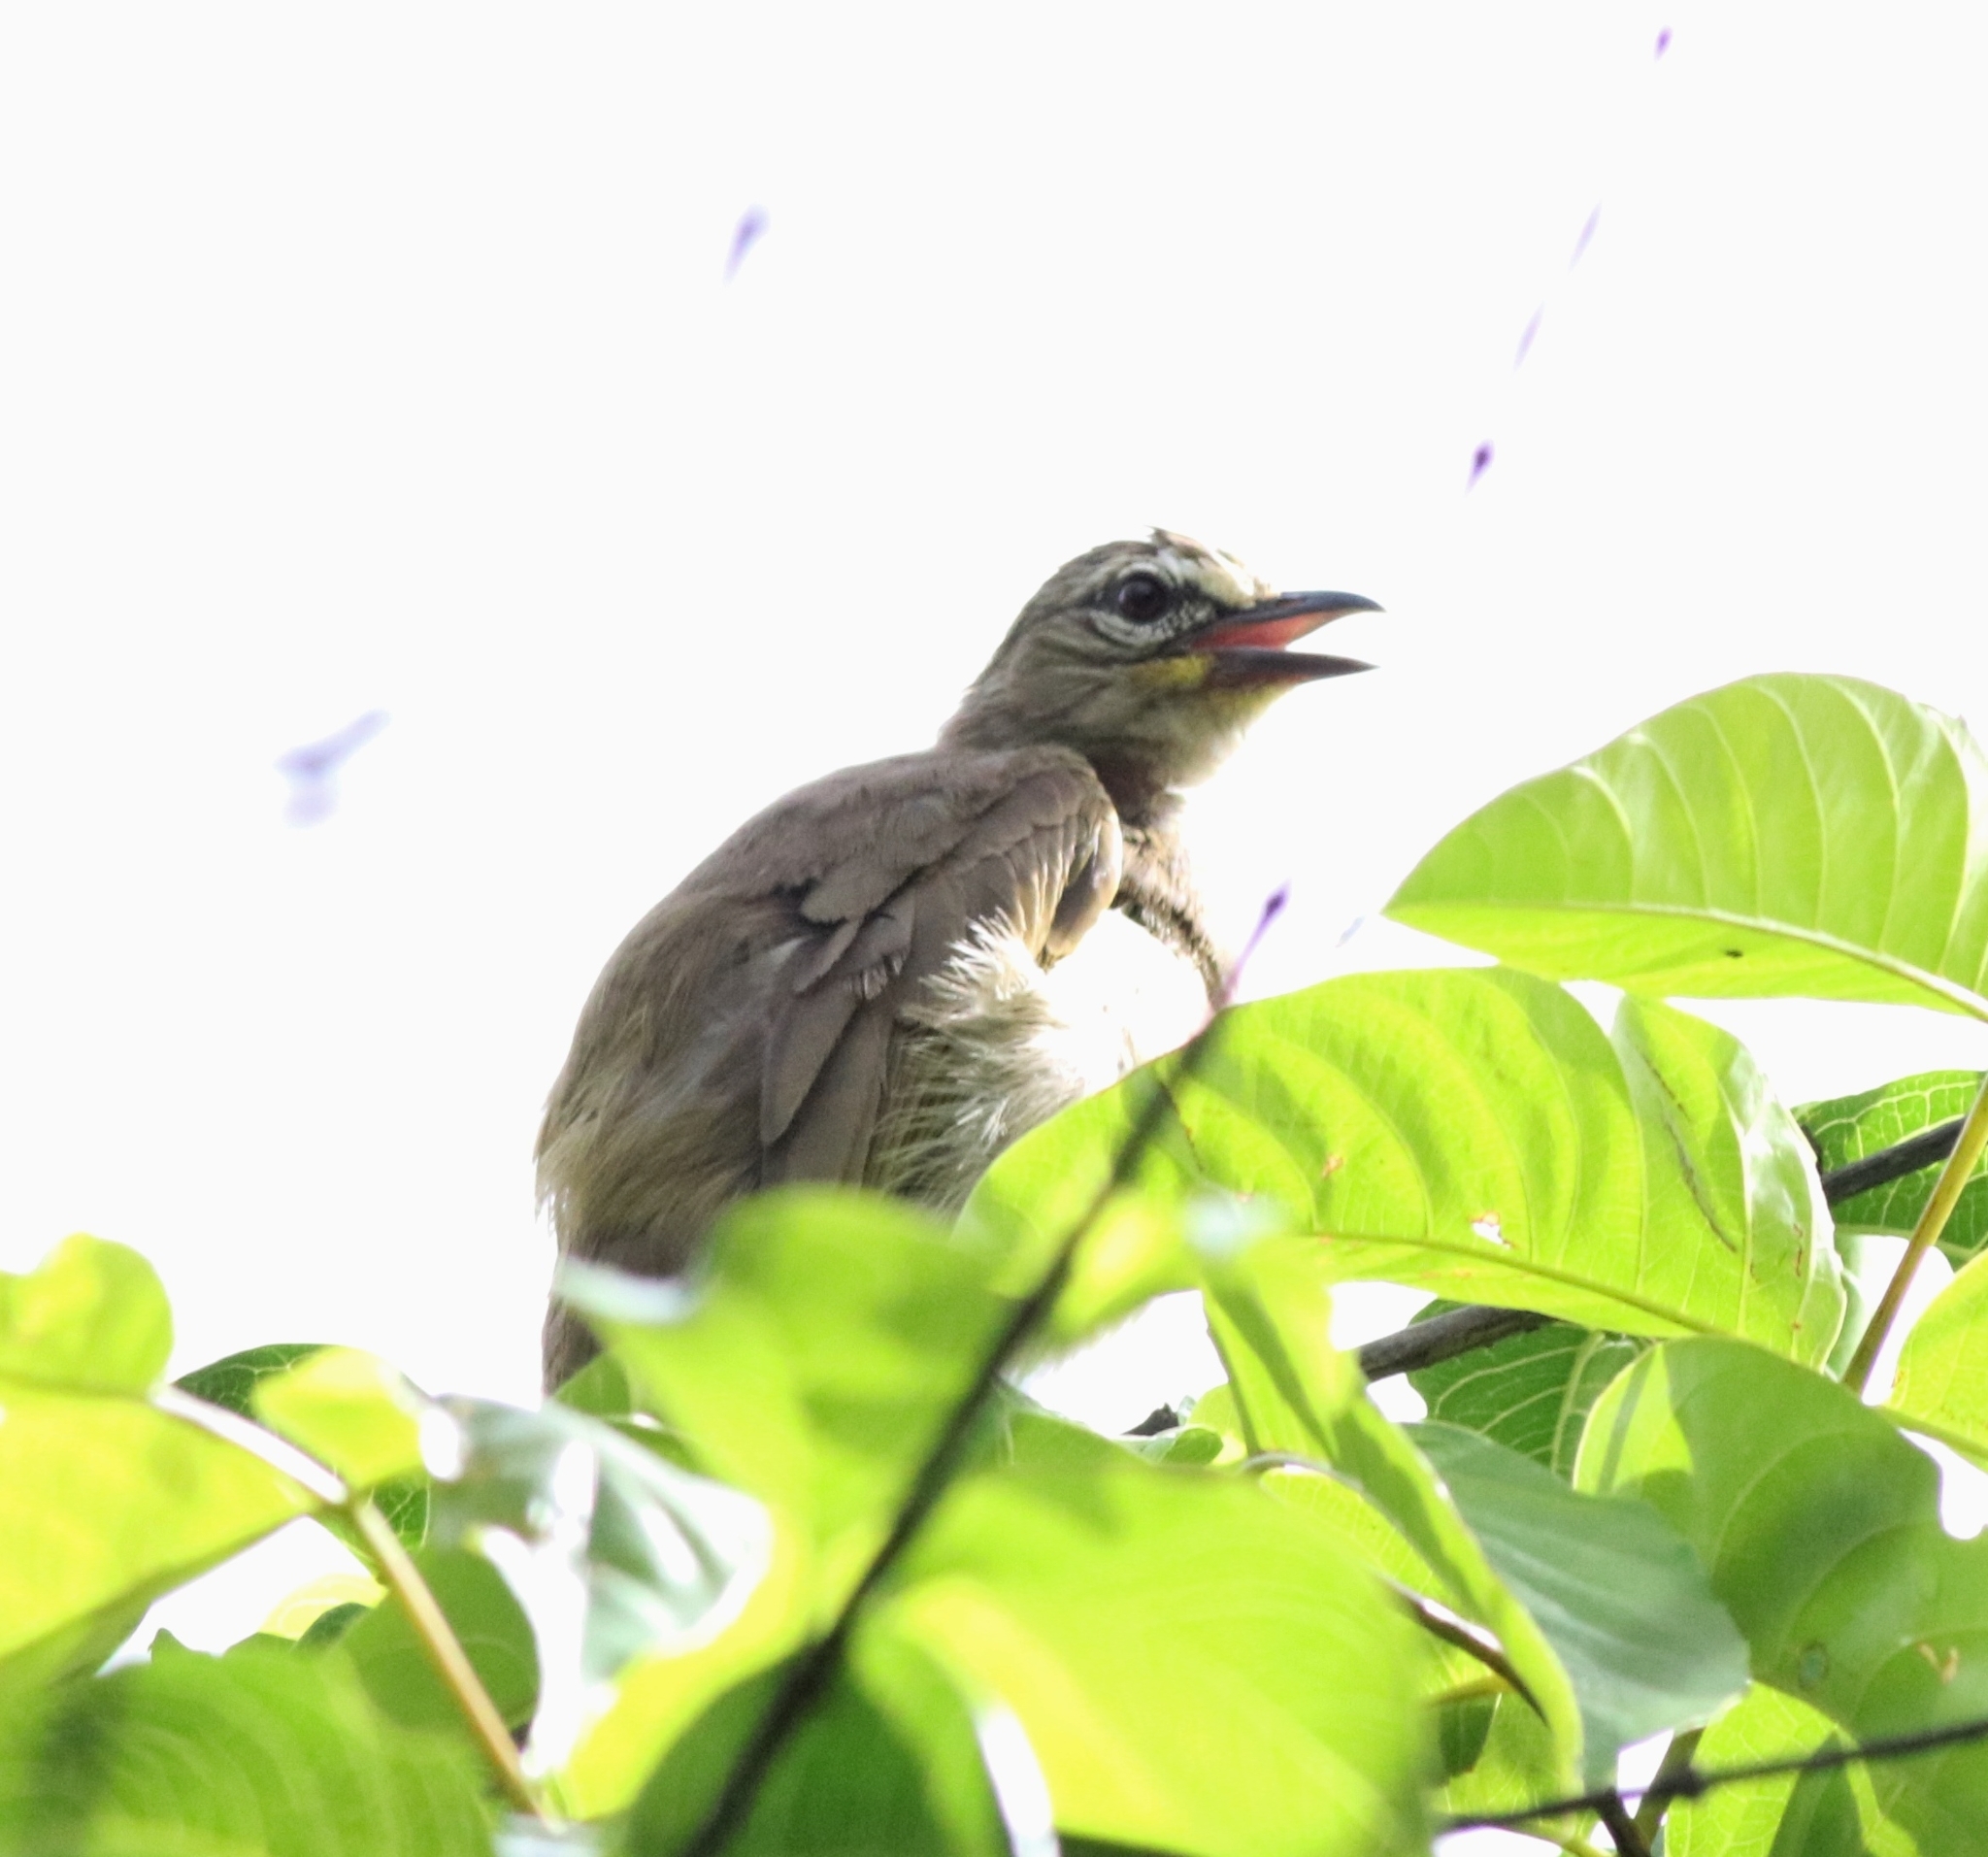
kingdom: Animalia
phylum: Chordata
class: Aves
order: Passeriformes
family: Pycnonotidae
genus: Pycnonotus
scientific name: Pycnonotus luteolus
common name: White-browed bulbul
